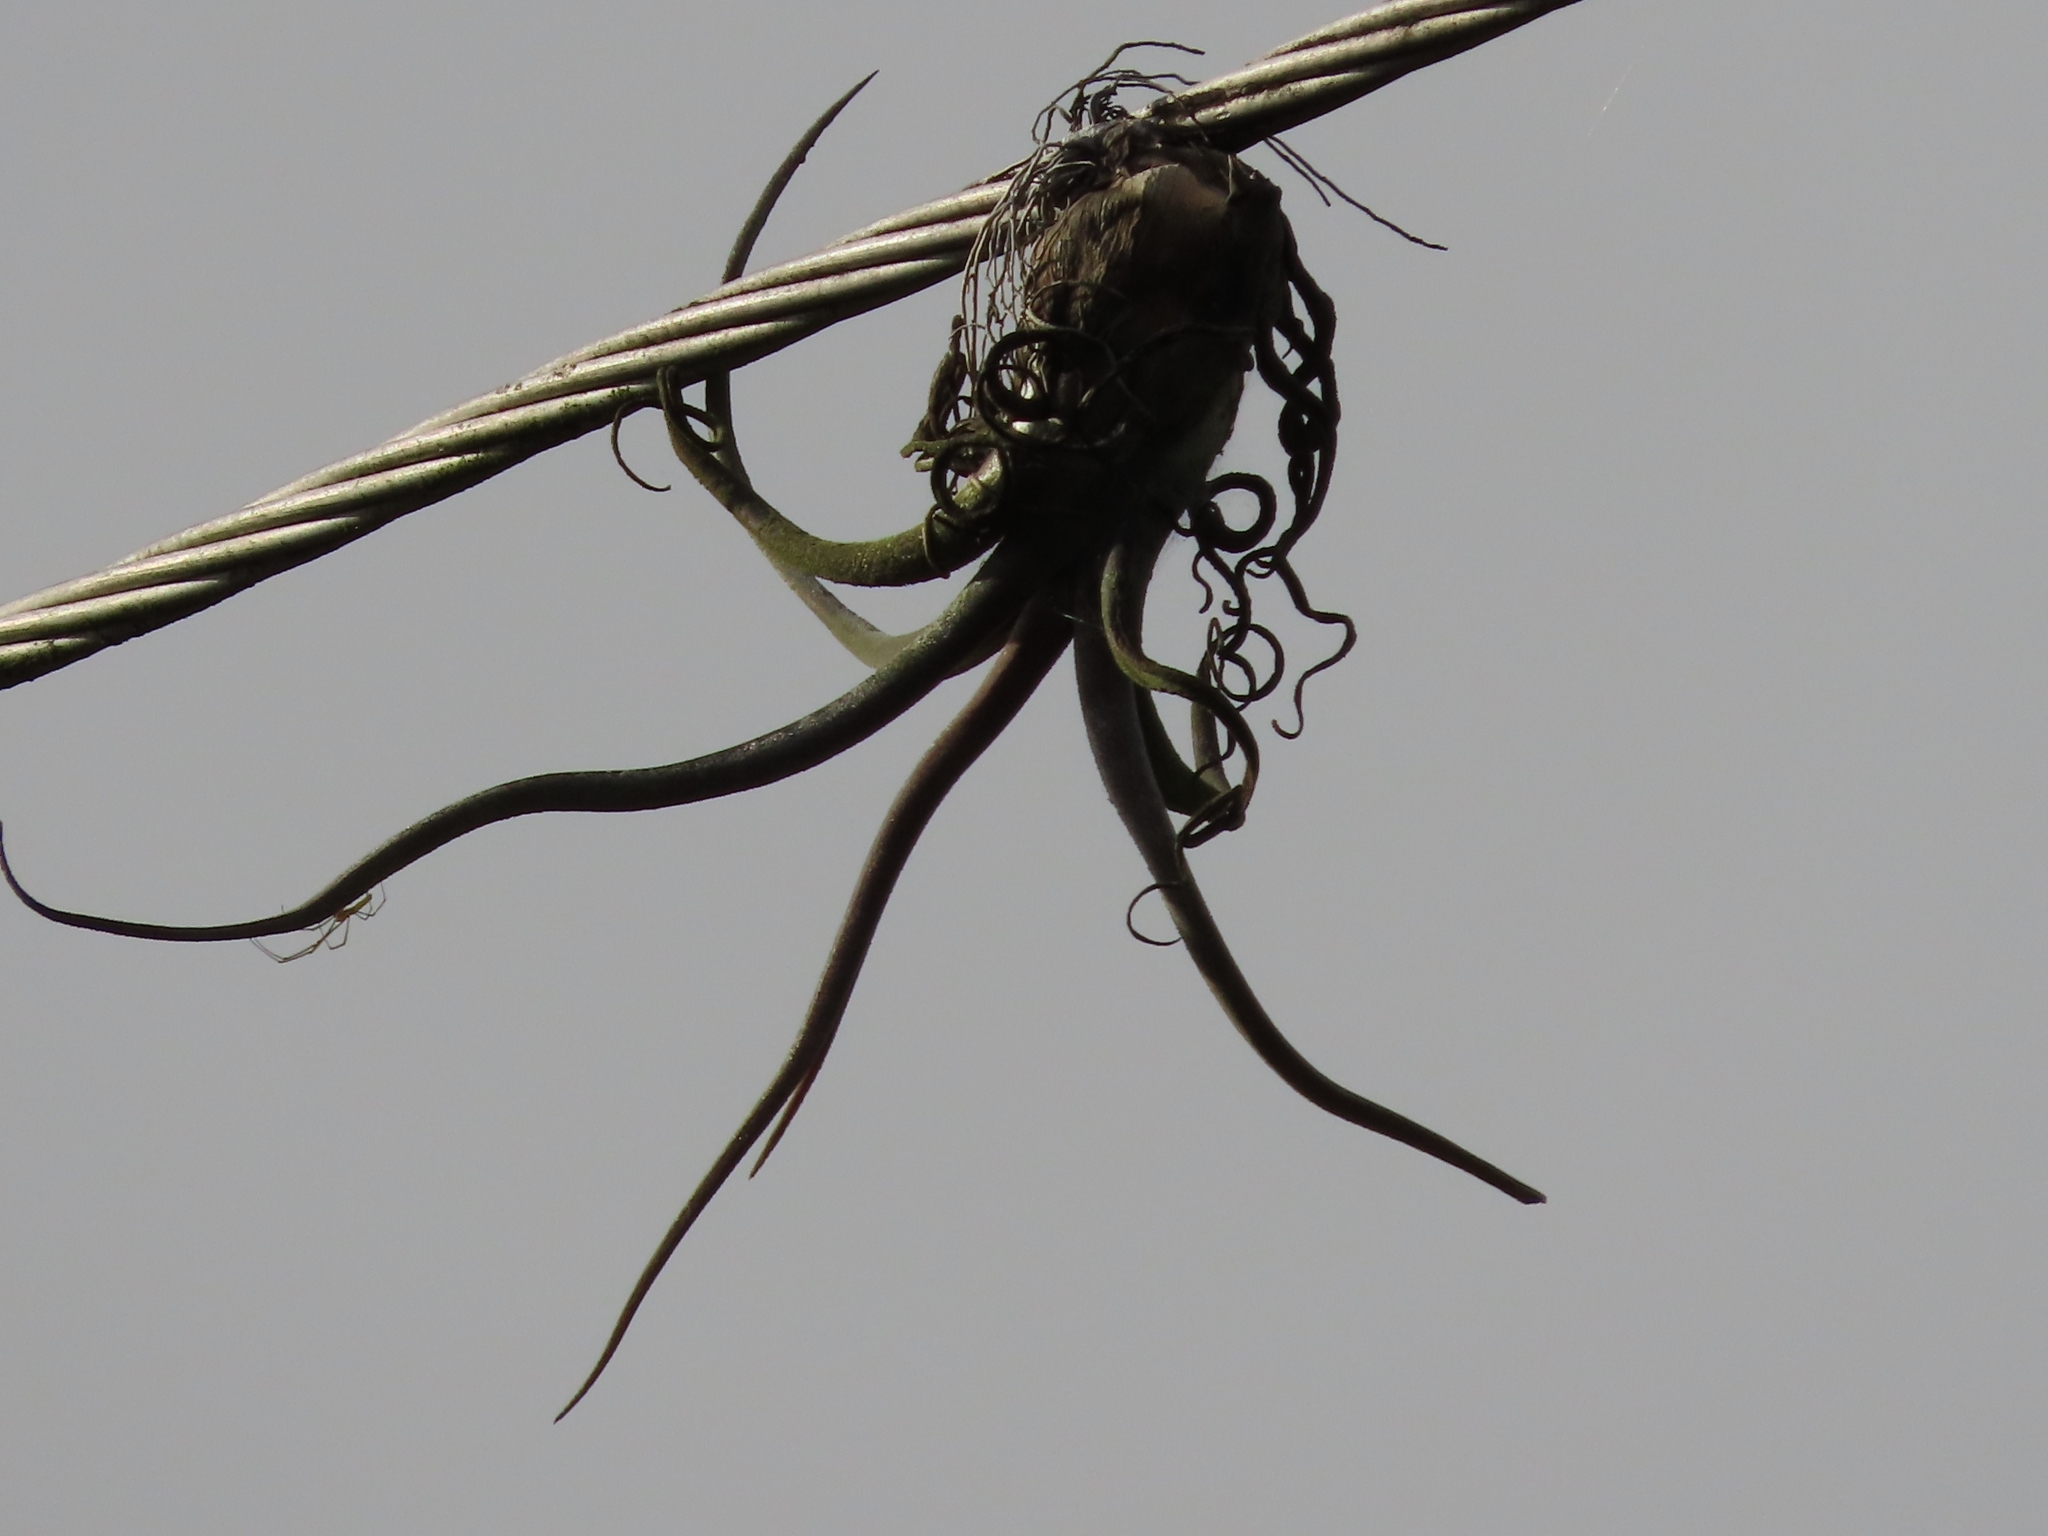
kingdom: Plantae
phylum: Tracheophyta
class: Liliopsida
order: Poales
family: Bromeliaceae
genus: Tillandsia
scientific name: Tillandsia caput-medusae
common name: Octopus plant
